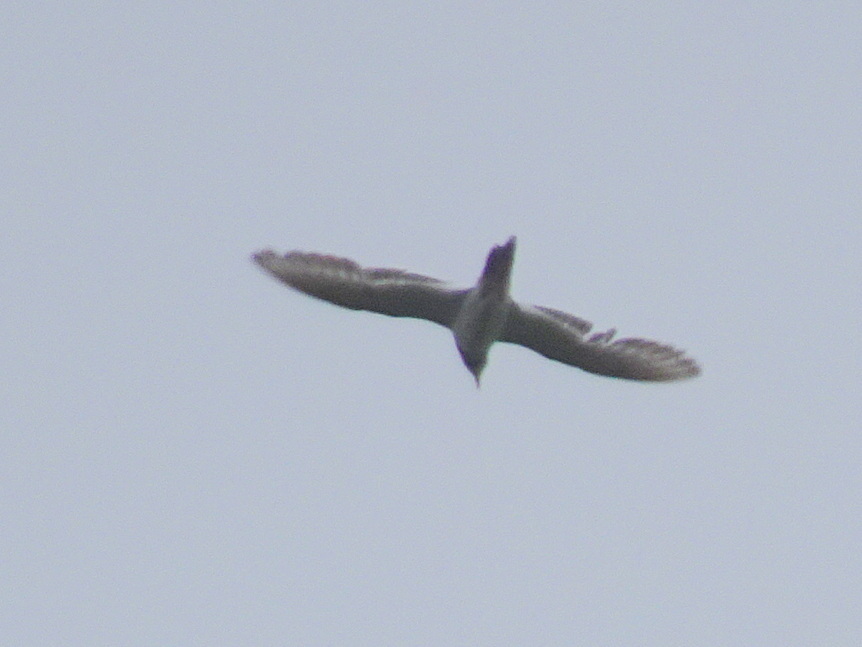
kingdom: Animalia
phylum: Chordata
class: Aves
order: Charadriiformes
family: Charadriidae
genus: Charadrius
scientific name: Charadrius vociferus
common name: Killdeer
